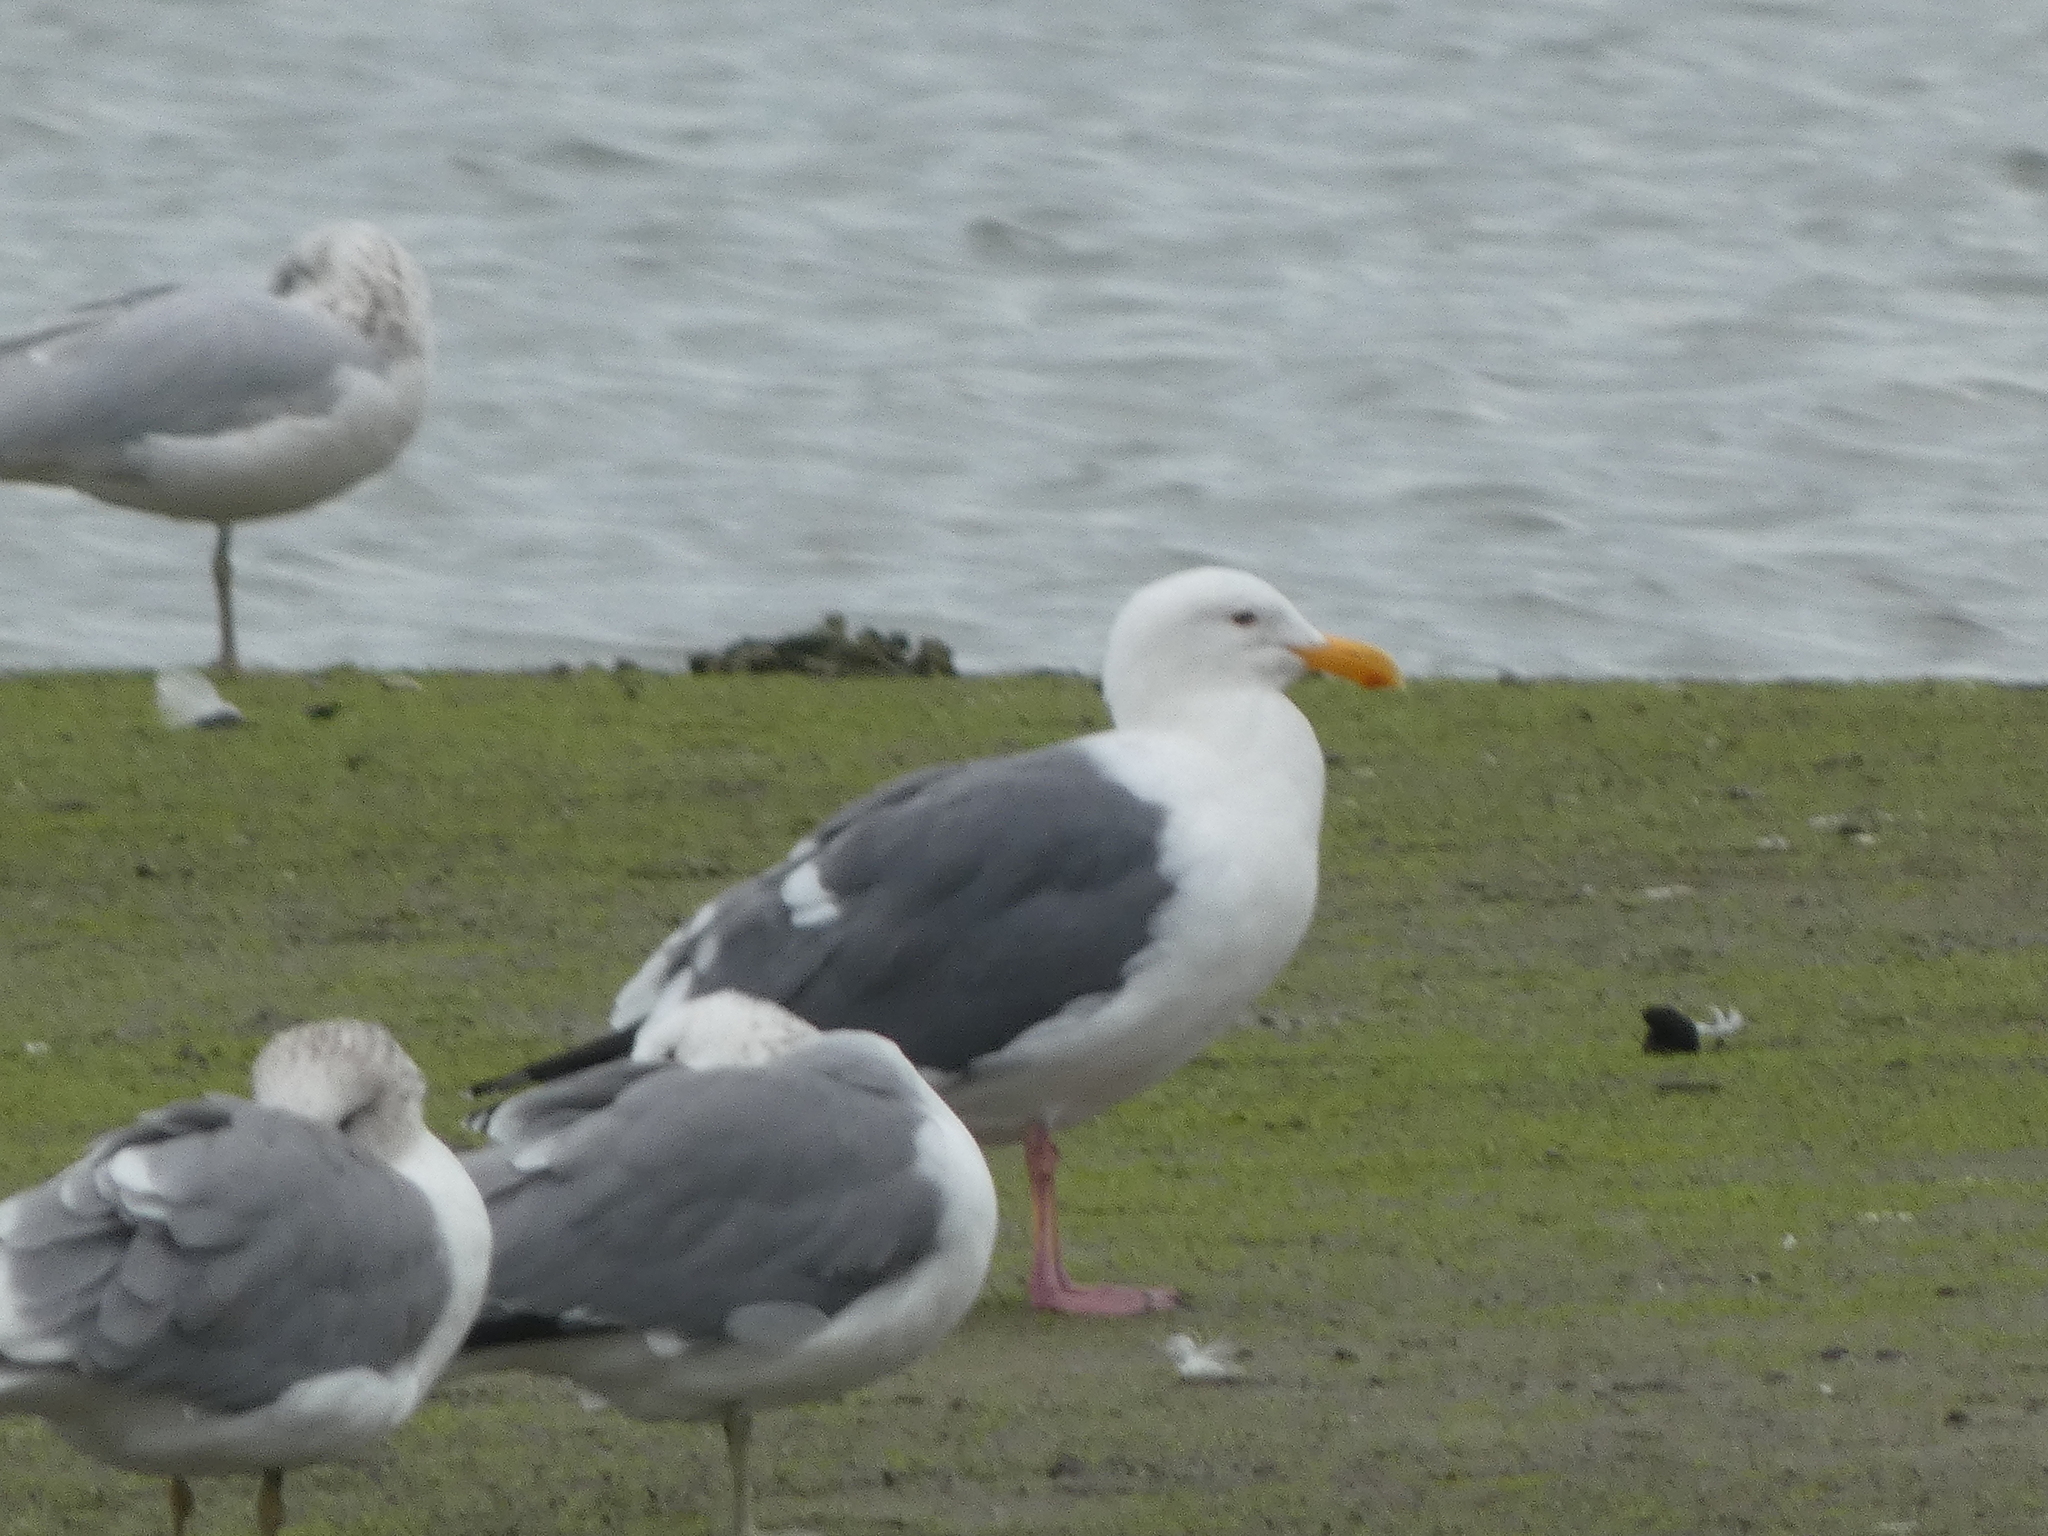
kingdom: Animalia
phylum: Chordata
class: Aves
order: Charadriiformes
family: Laridae
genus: Larus
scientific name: Larus occidentalis
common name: Western gull
